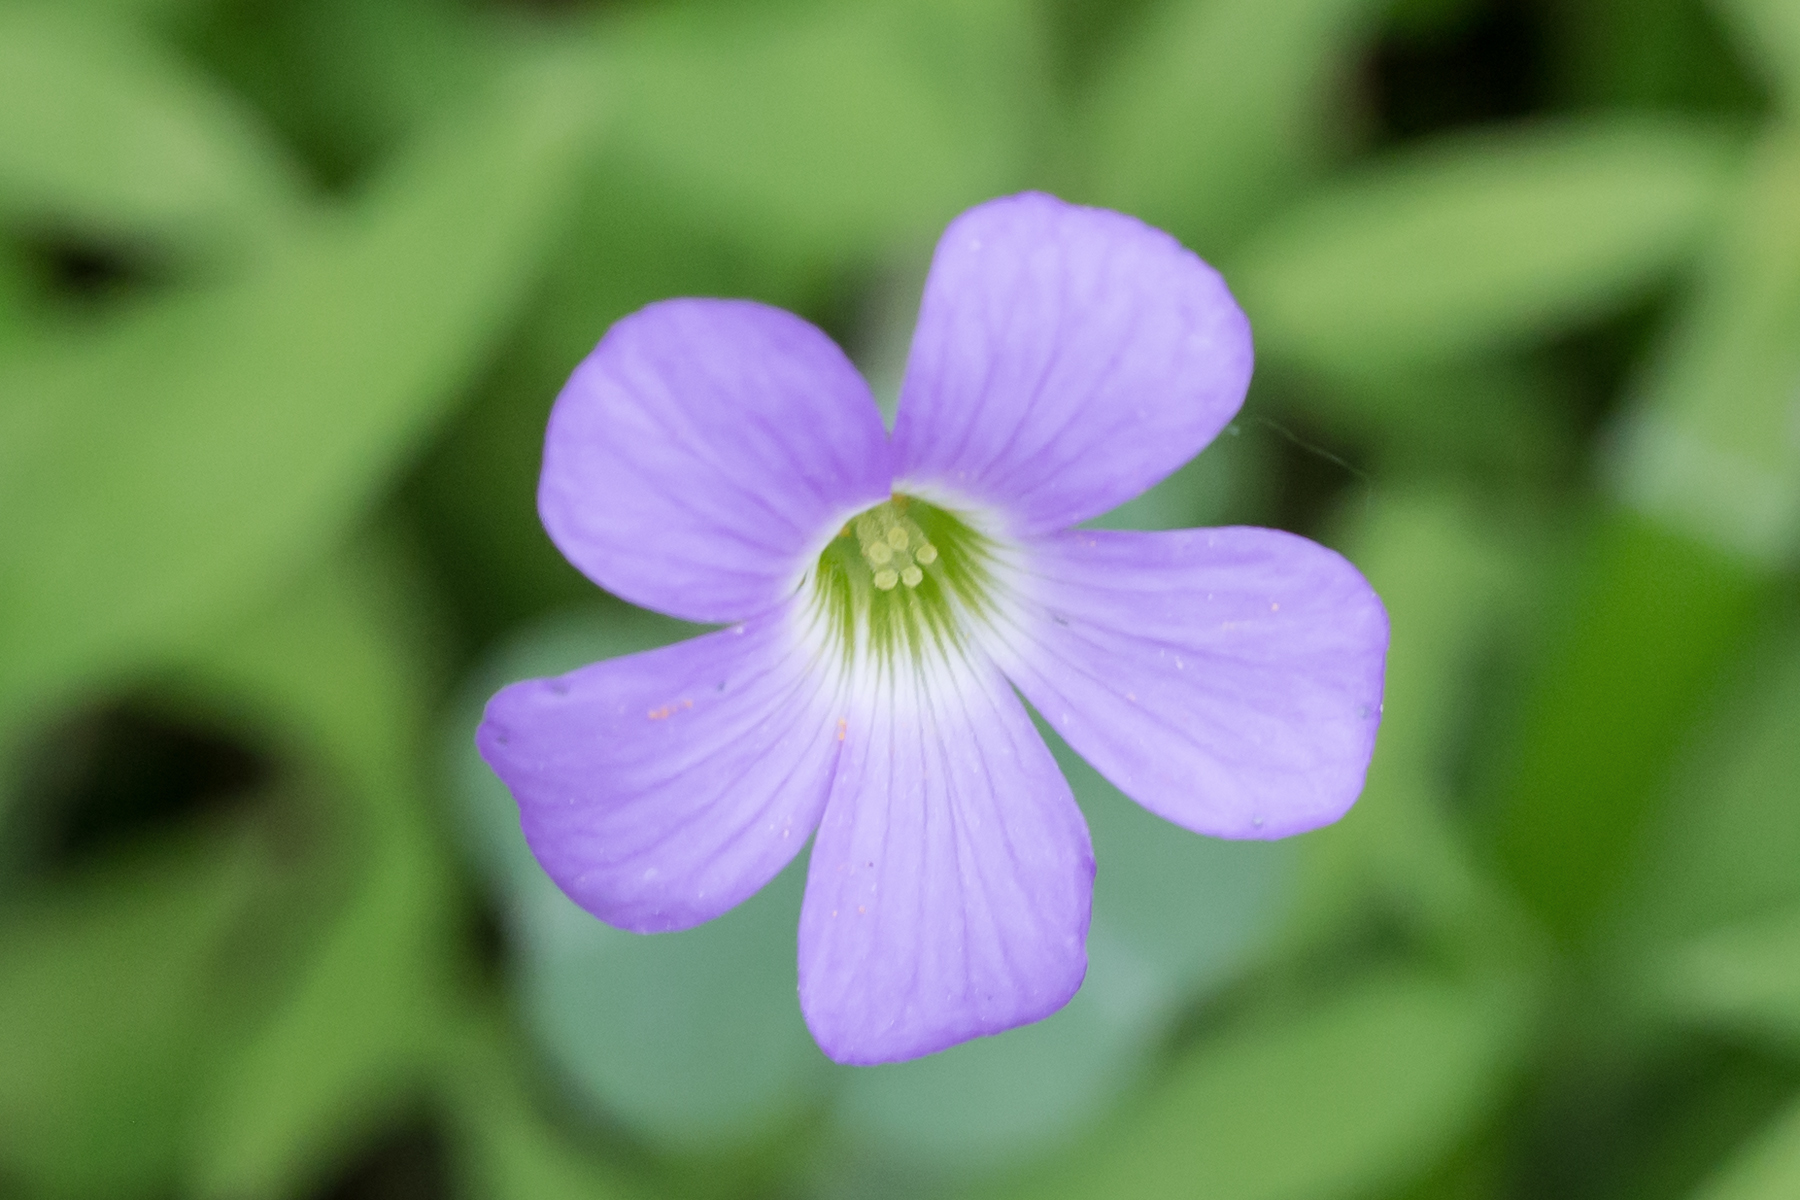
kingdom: Plantae
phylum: Tracheophyta
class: Magnoliopsida
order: Oxalidales
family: Oxalidaceae
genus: Oxalis
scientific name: Oxalis violacea
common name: Violet wood-sorrel
